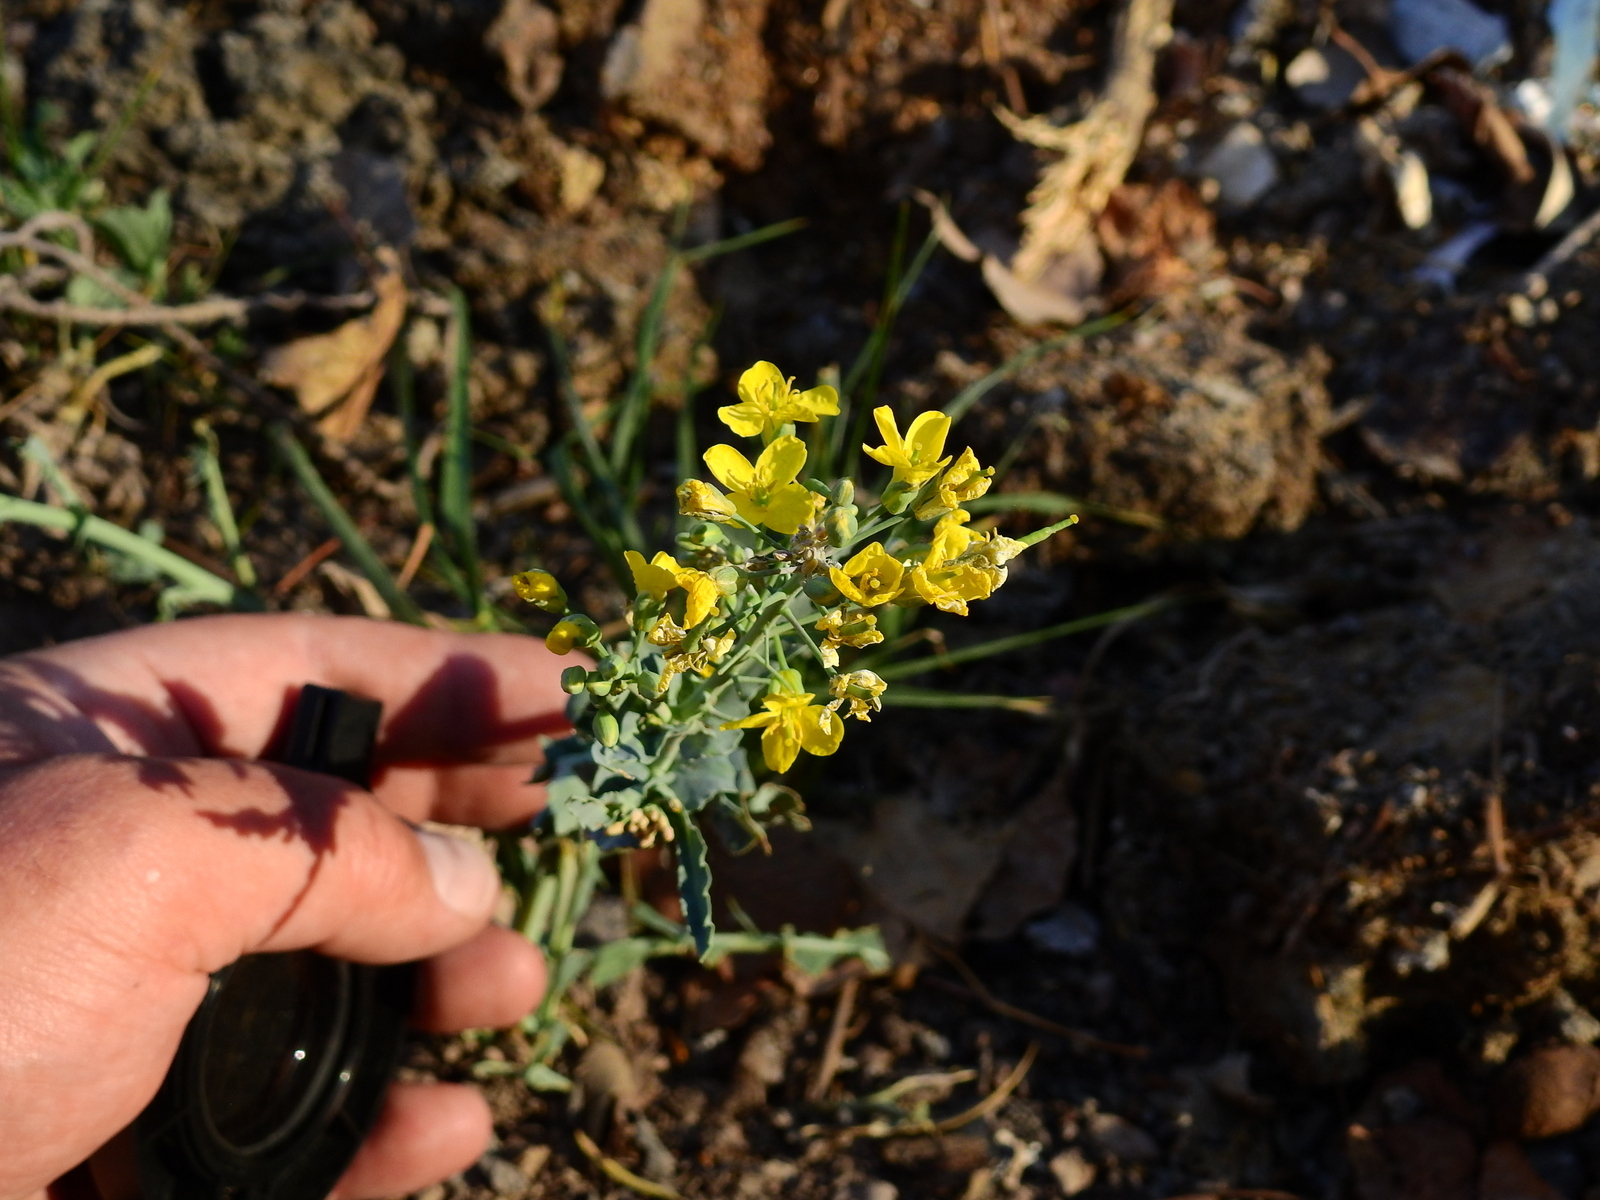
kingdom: Plantae
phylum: Tracheophyta
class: Magnoliopsida
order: Brassicales
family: Brassicaceae
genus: Brassica
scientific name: Brassica rapa
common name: Field mustard
